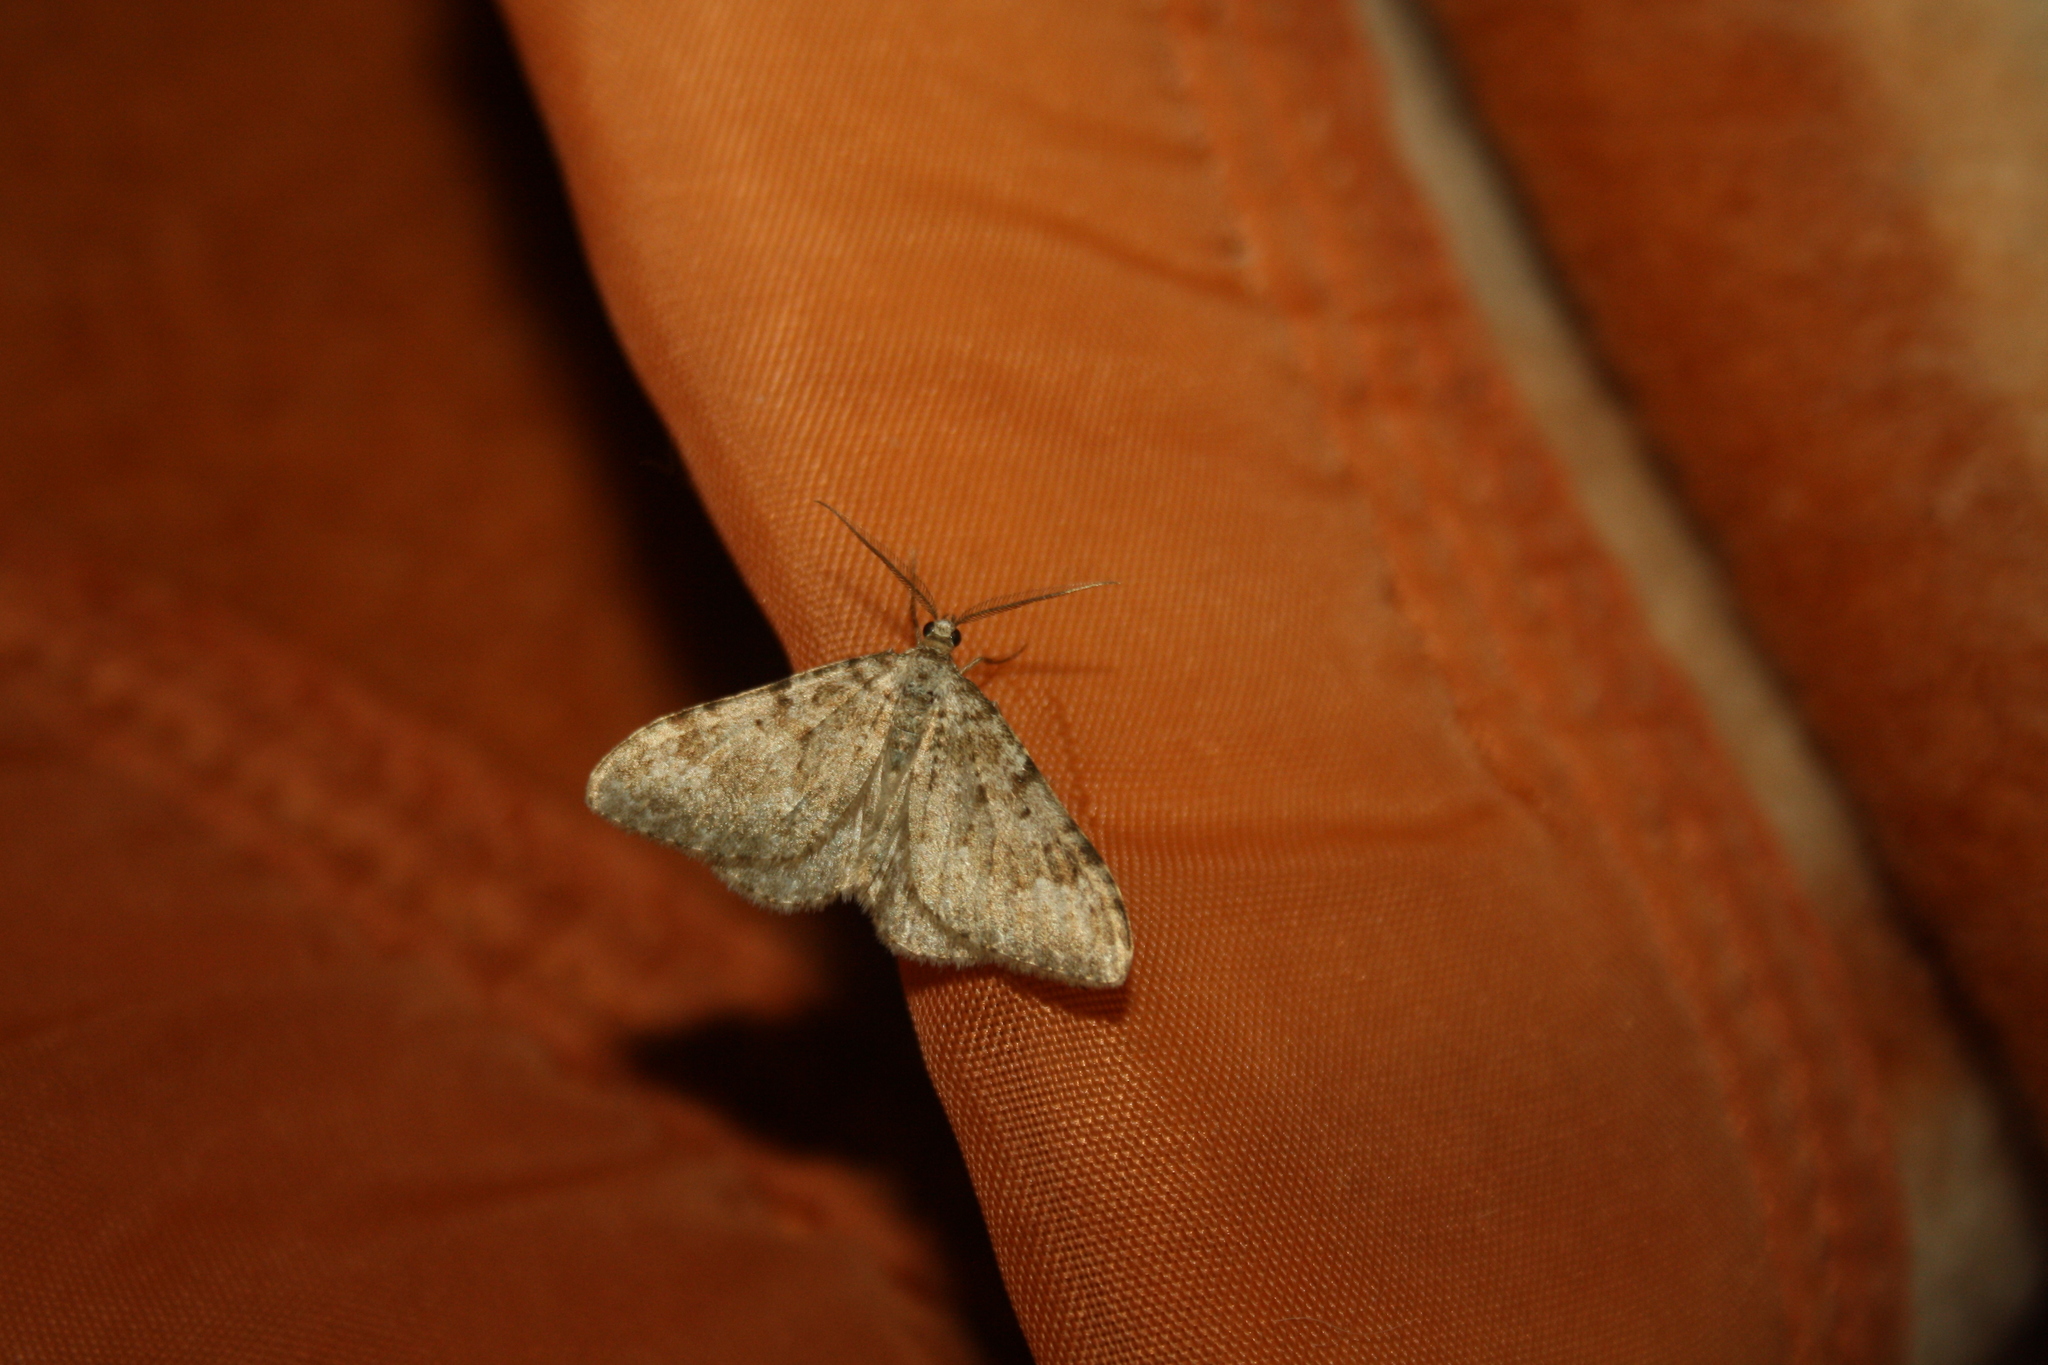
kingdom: Animalia
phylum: Arthropoda
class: Insecta
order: Lepidoptera
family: Geometridae
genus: Nebula
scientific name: Nebula salicata
